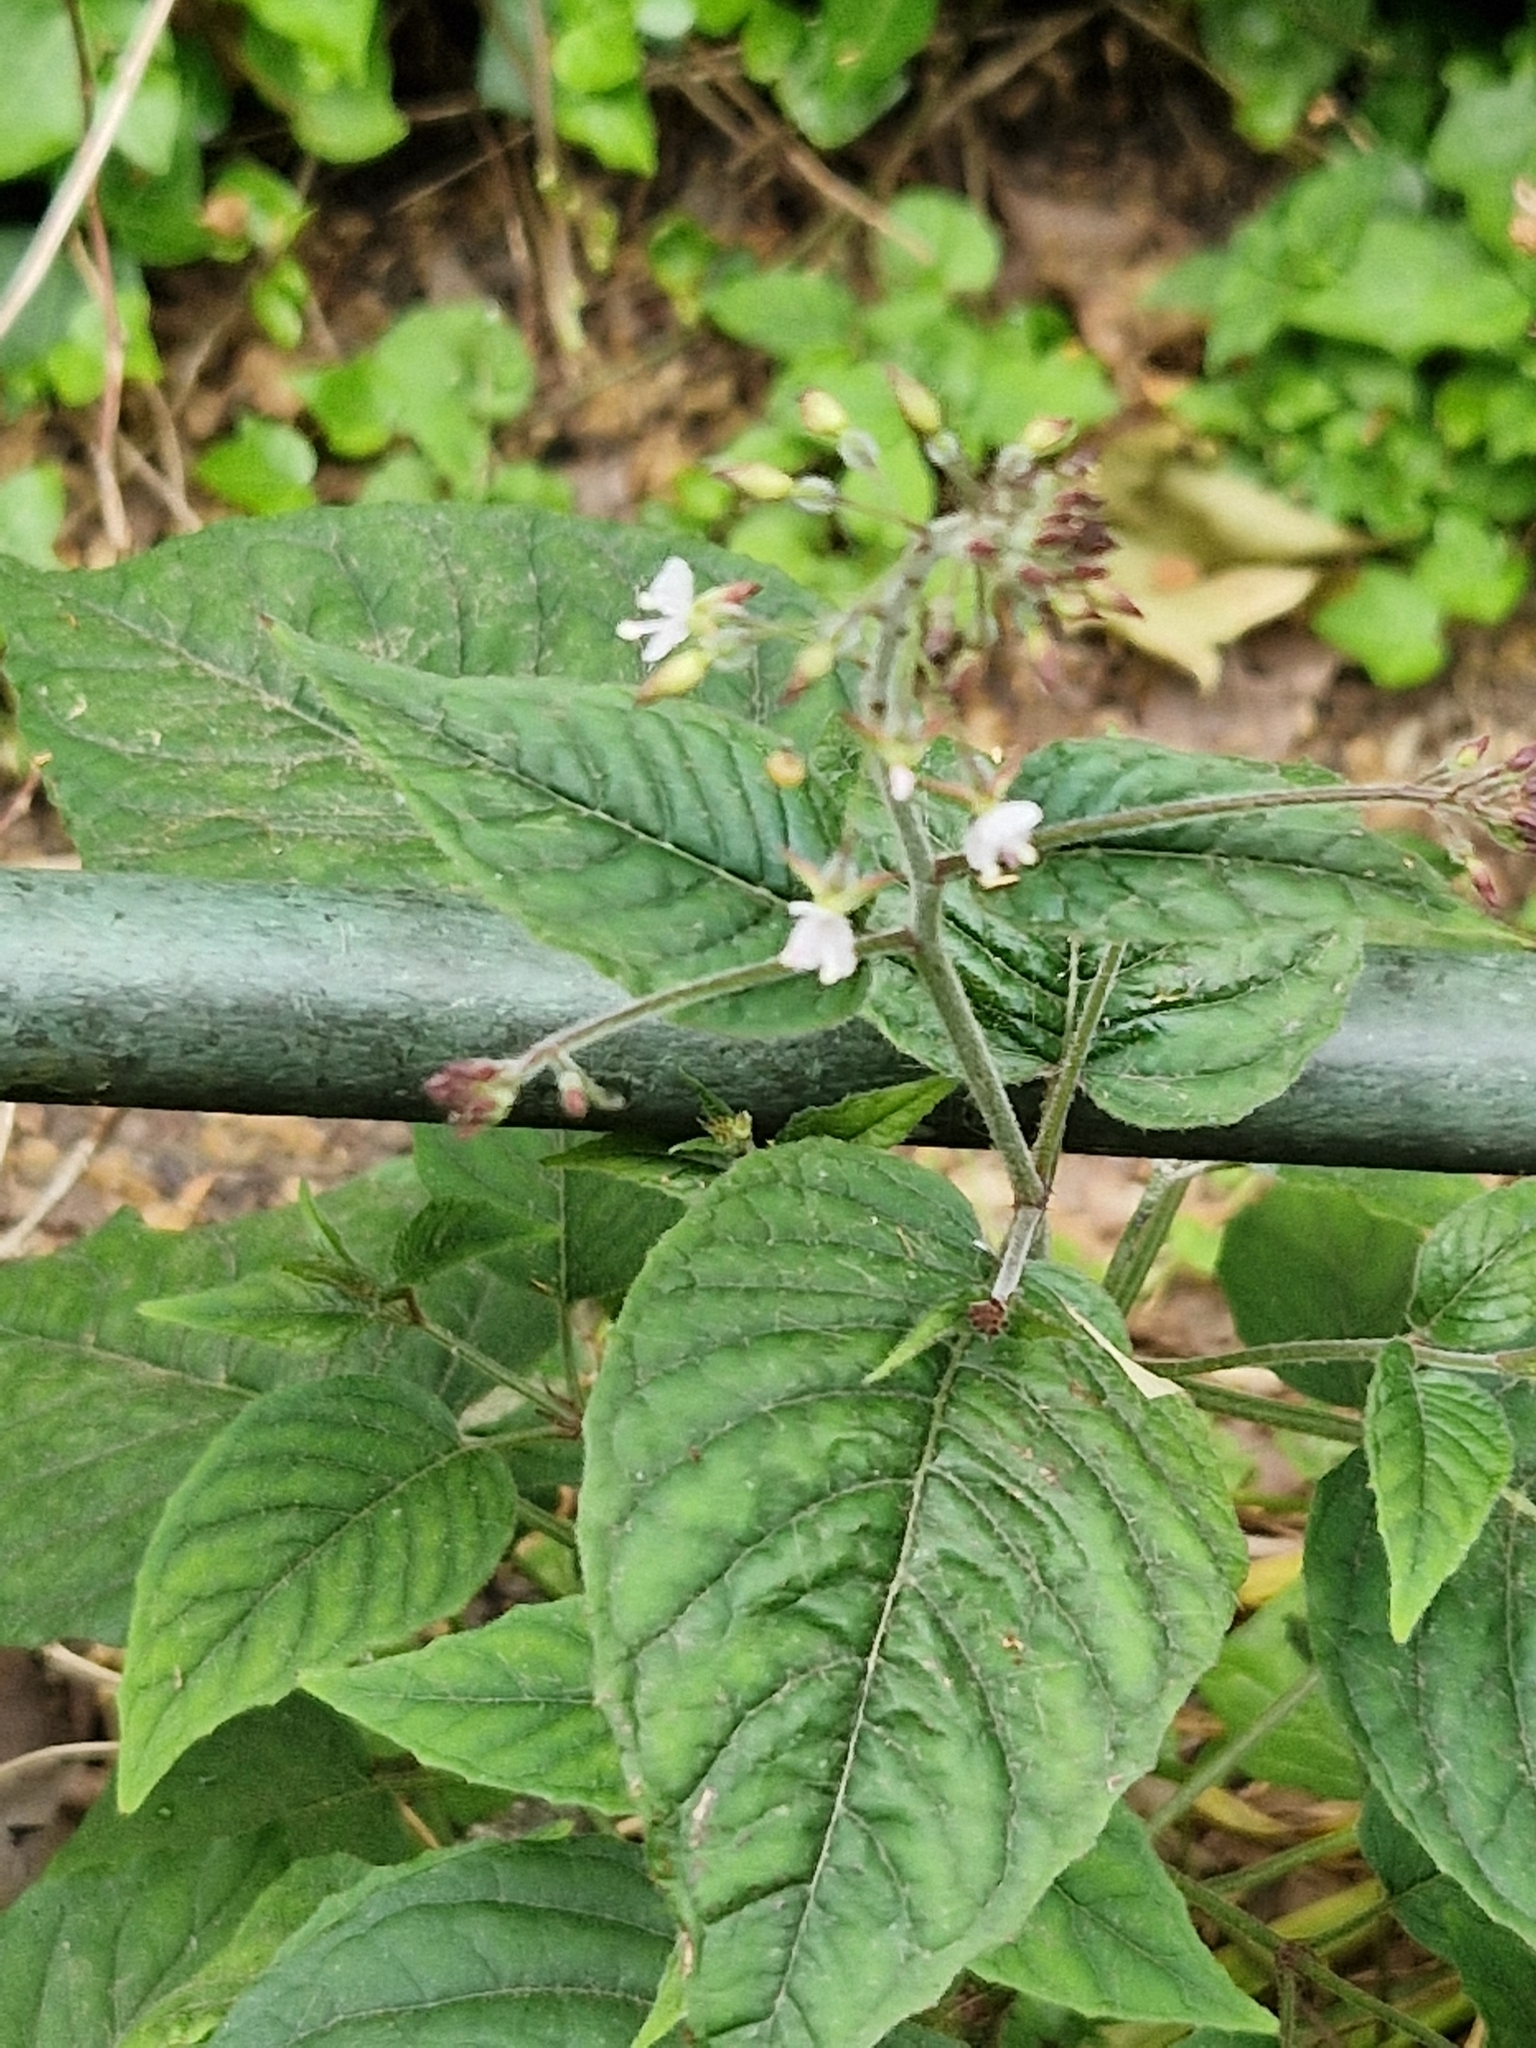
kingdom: Plantae
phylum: Tracheophyta
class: Magnoliopsida
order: Myrtales
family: Onagraceae
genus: Circaea
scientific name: Circaea lutetiana
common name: Enchanter's-nightshade
